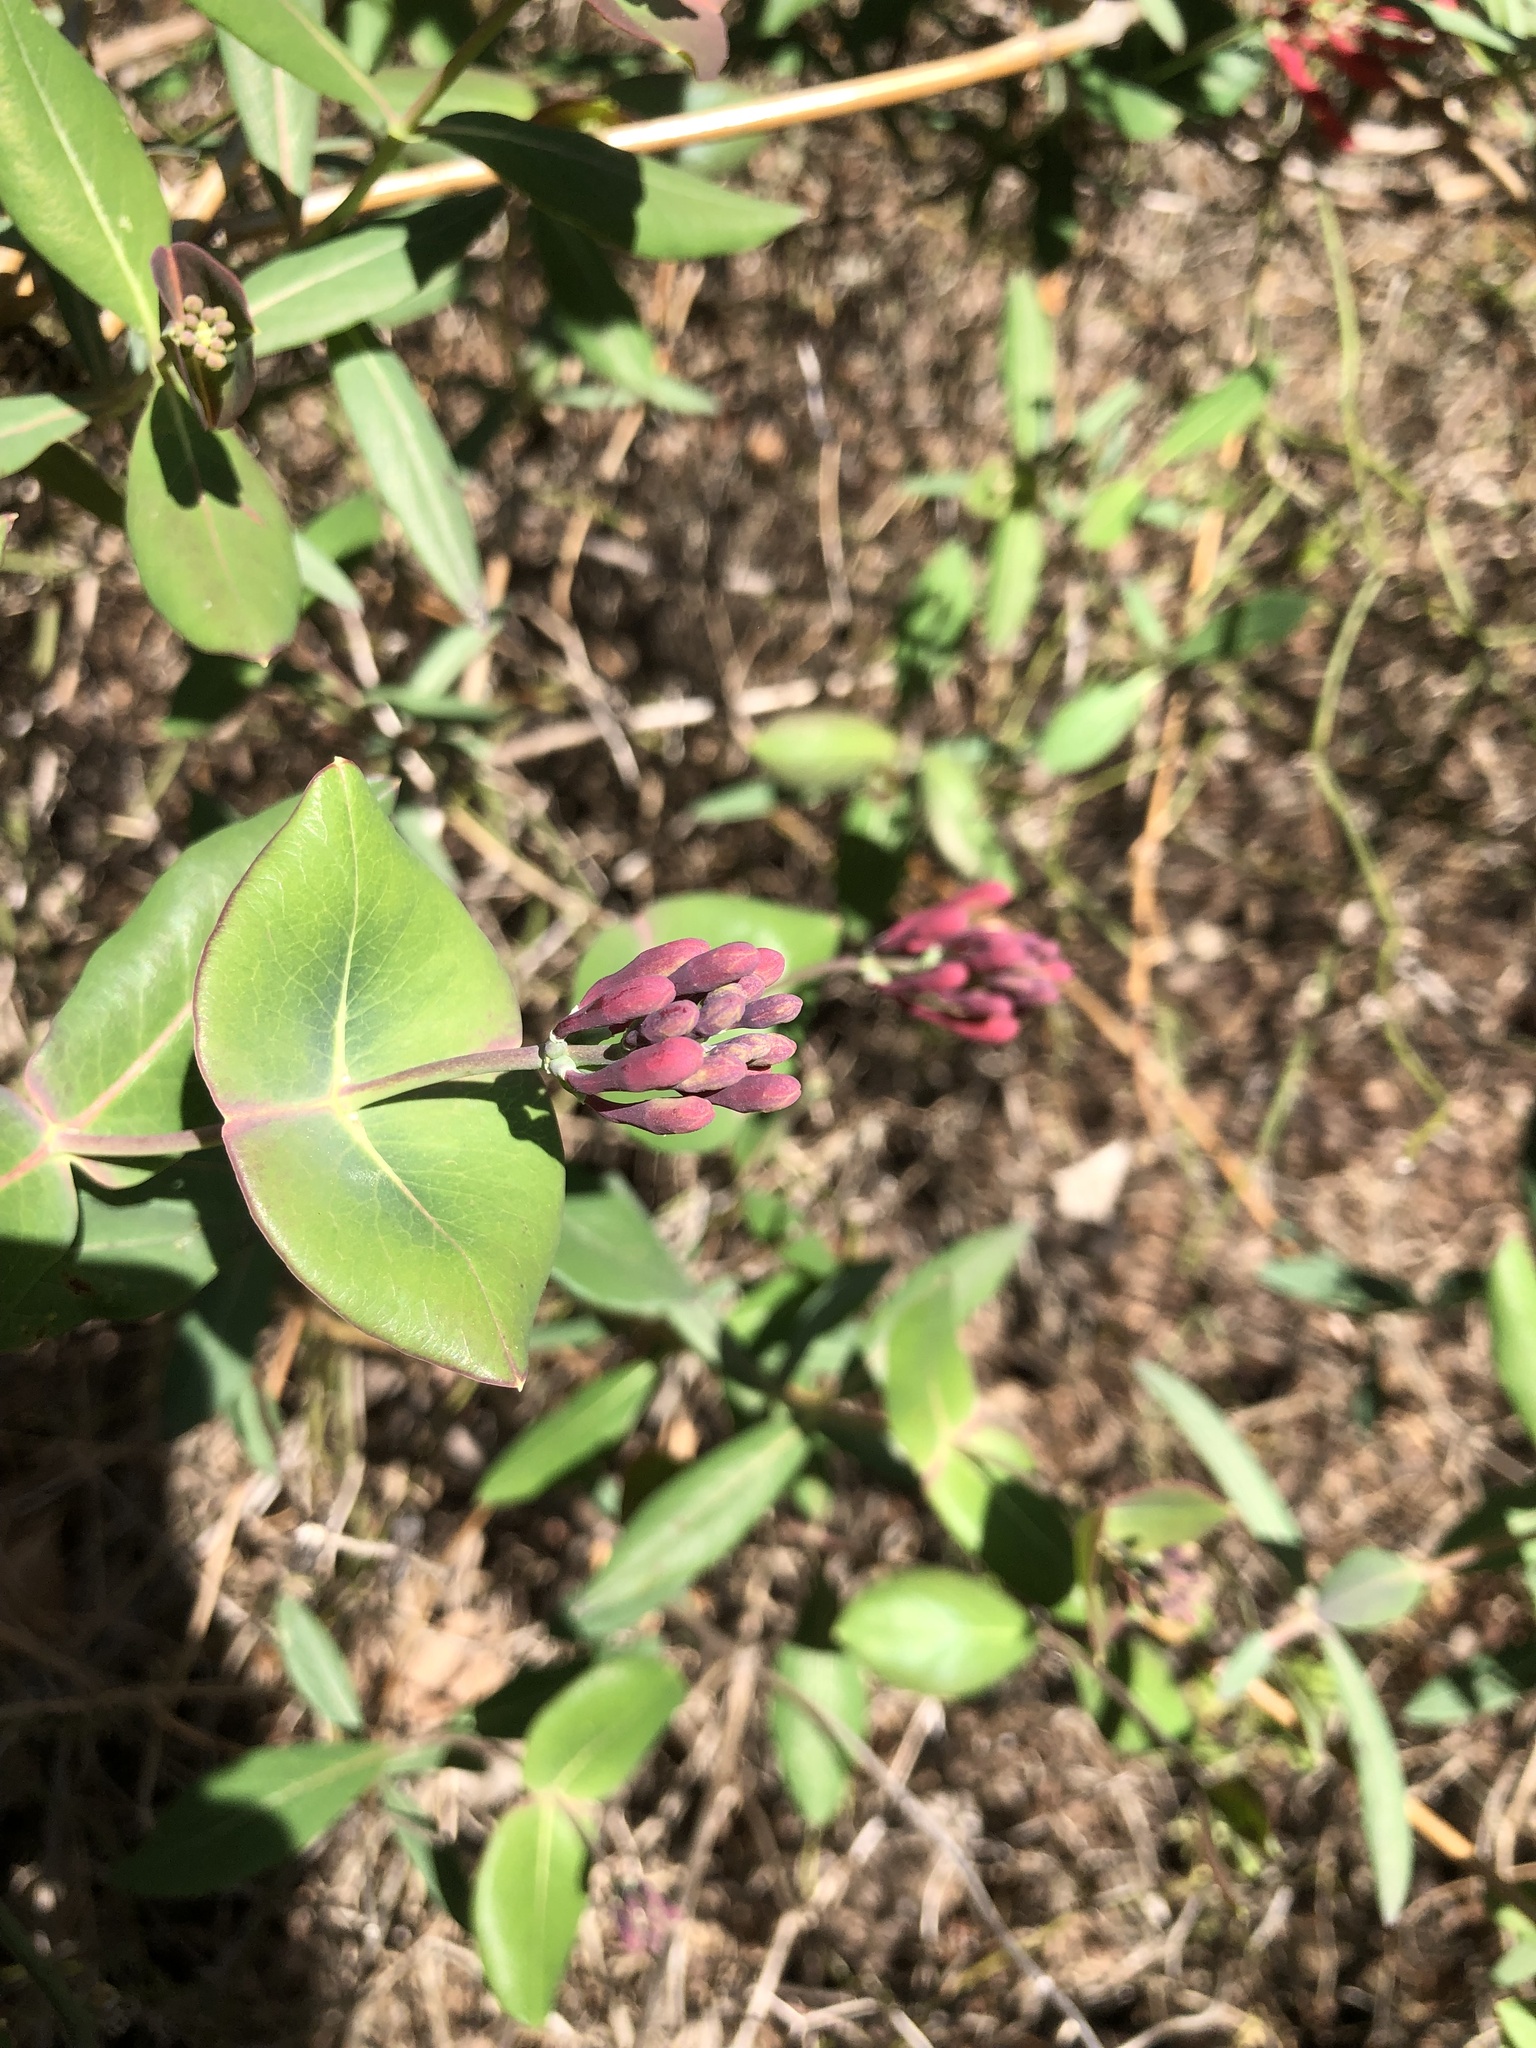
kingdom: Plantae
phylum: Tracheophyta
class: Magnoliopsida
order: Dipsacales
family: Caprifoliaceae
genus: Lonicera
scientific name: Lonicera sempervirens
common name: Coral honeysuckle
